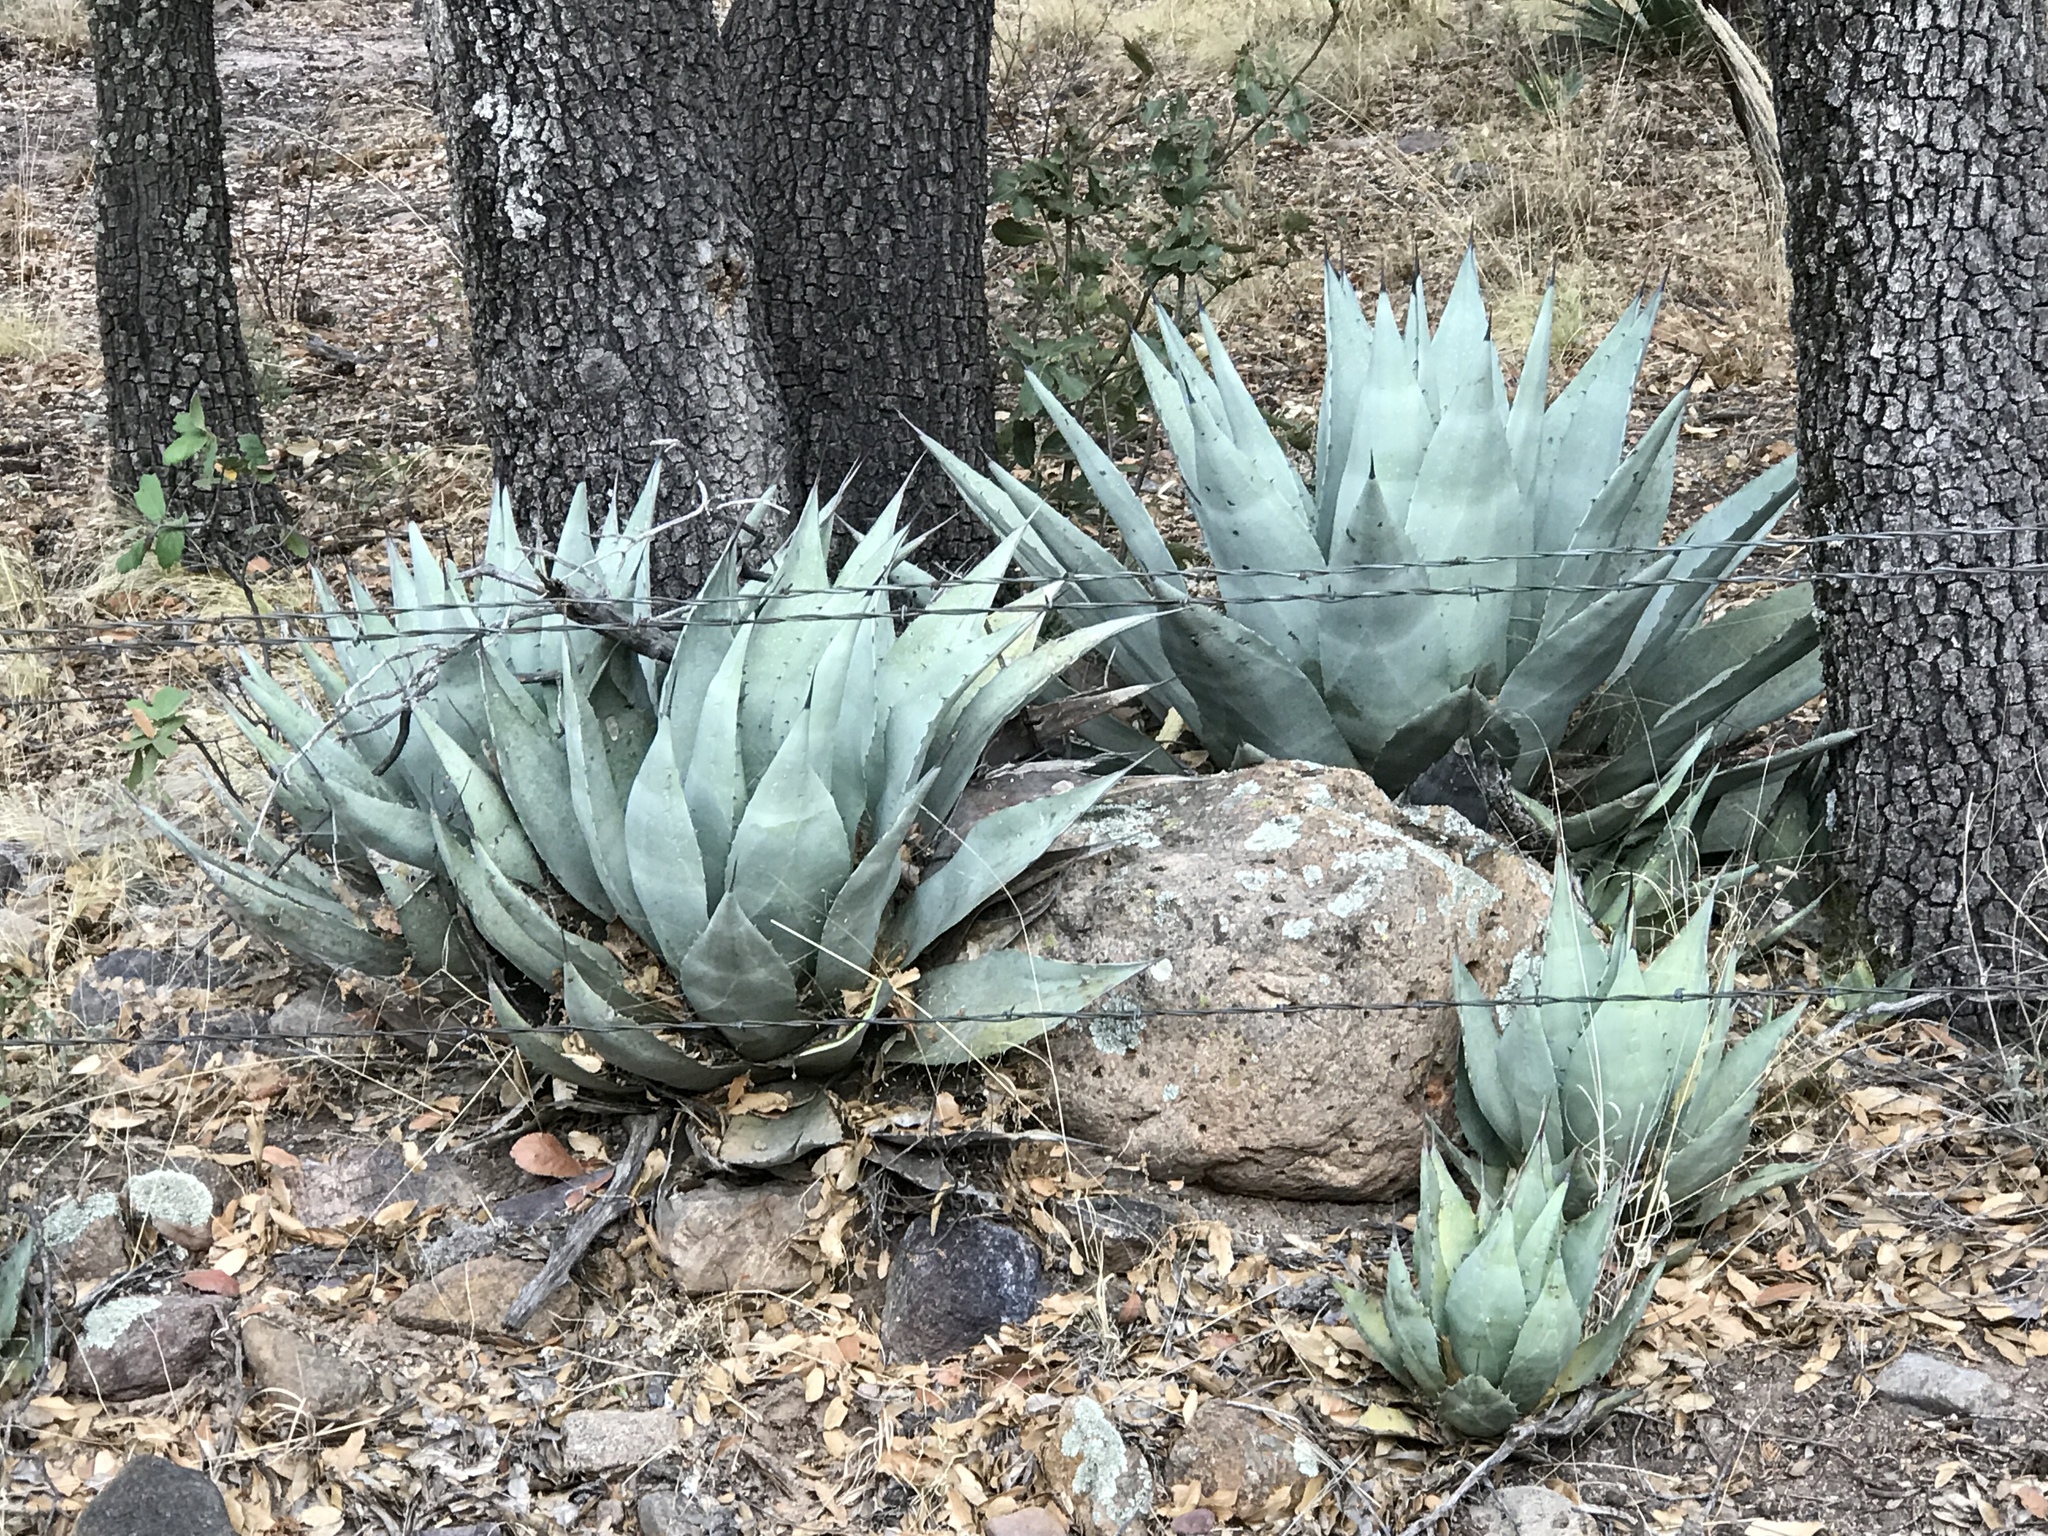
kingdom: Plantae
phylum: Tracheophyta
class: Liliopsida
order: Asparagales
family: Asparagaceae
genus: Agave
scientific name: Agave parryi
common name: Parry's agave
